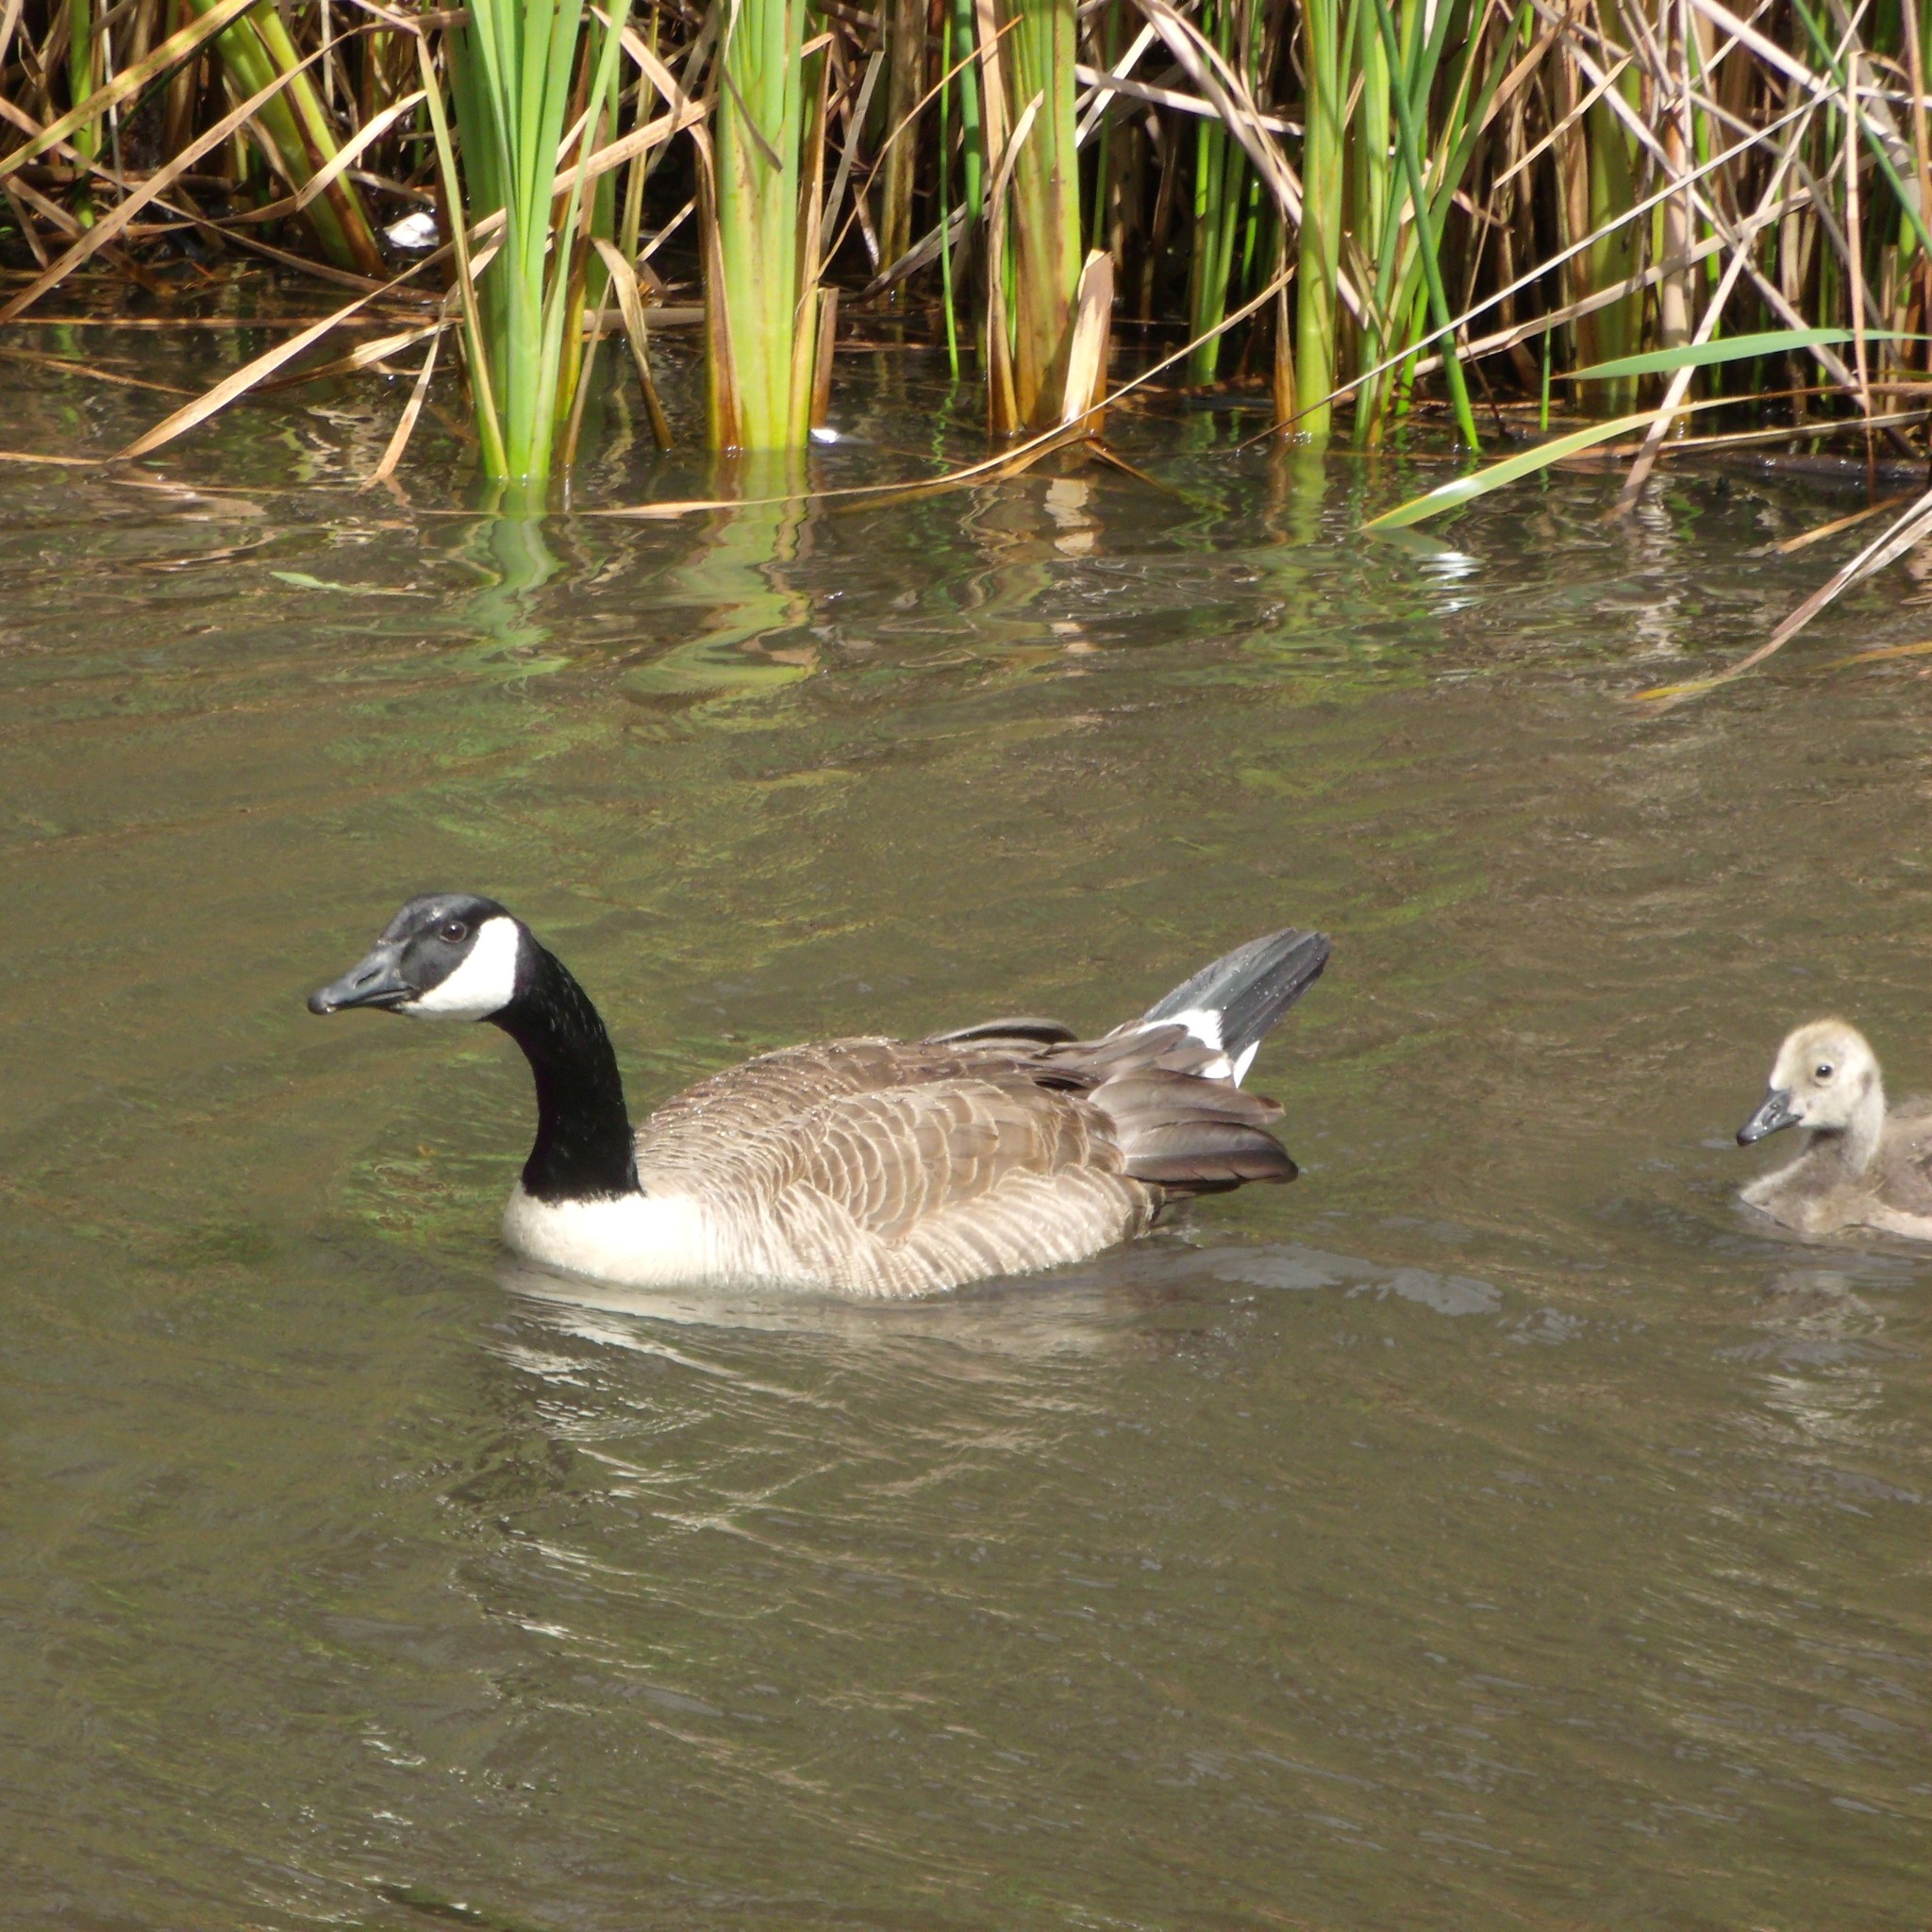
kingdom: Animalia
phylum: Chordata
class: Aves
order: Anseriformes
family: Anatidae
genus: Branta
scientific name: Branta canadensis
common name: Canada goose
